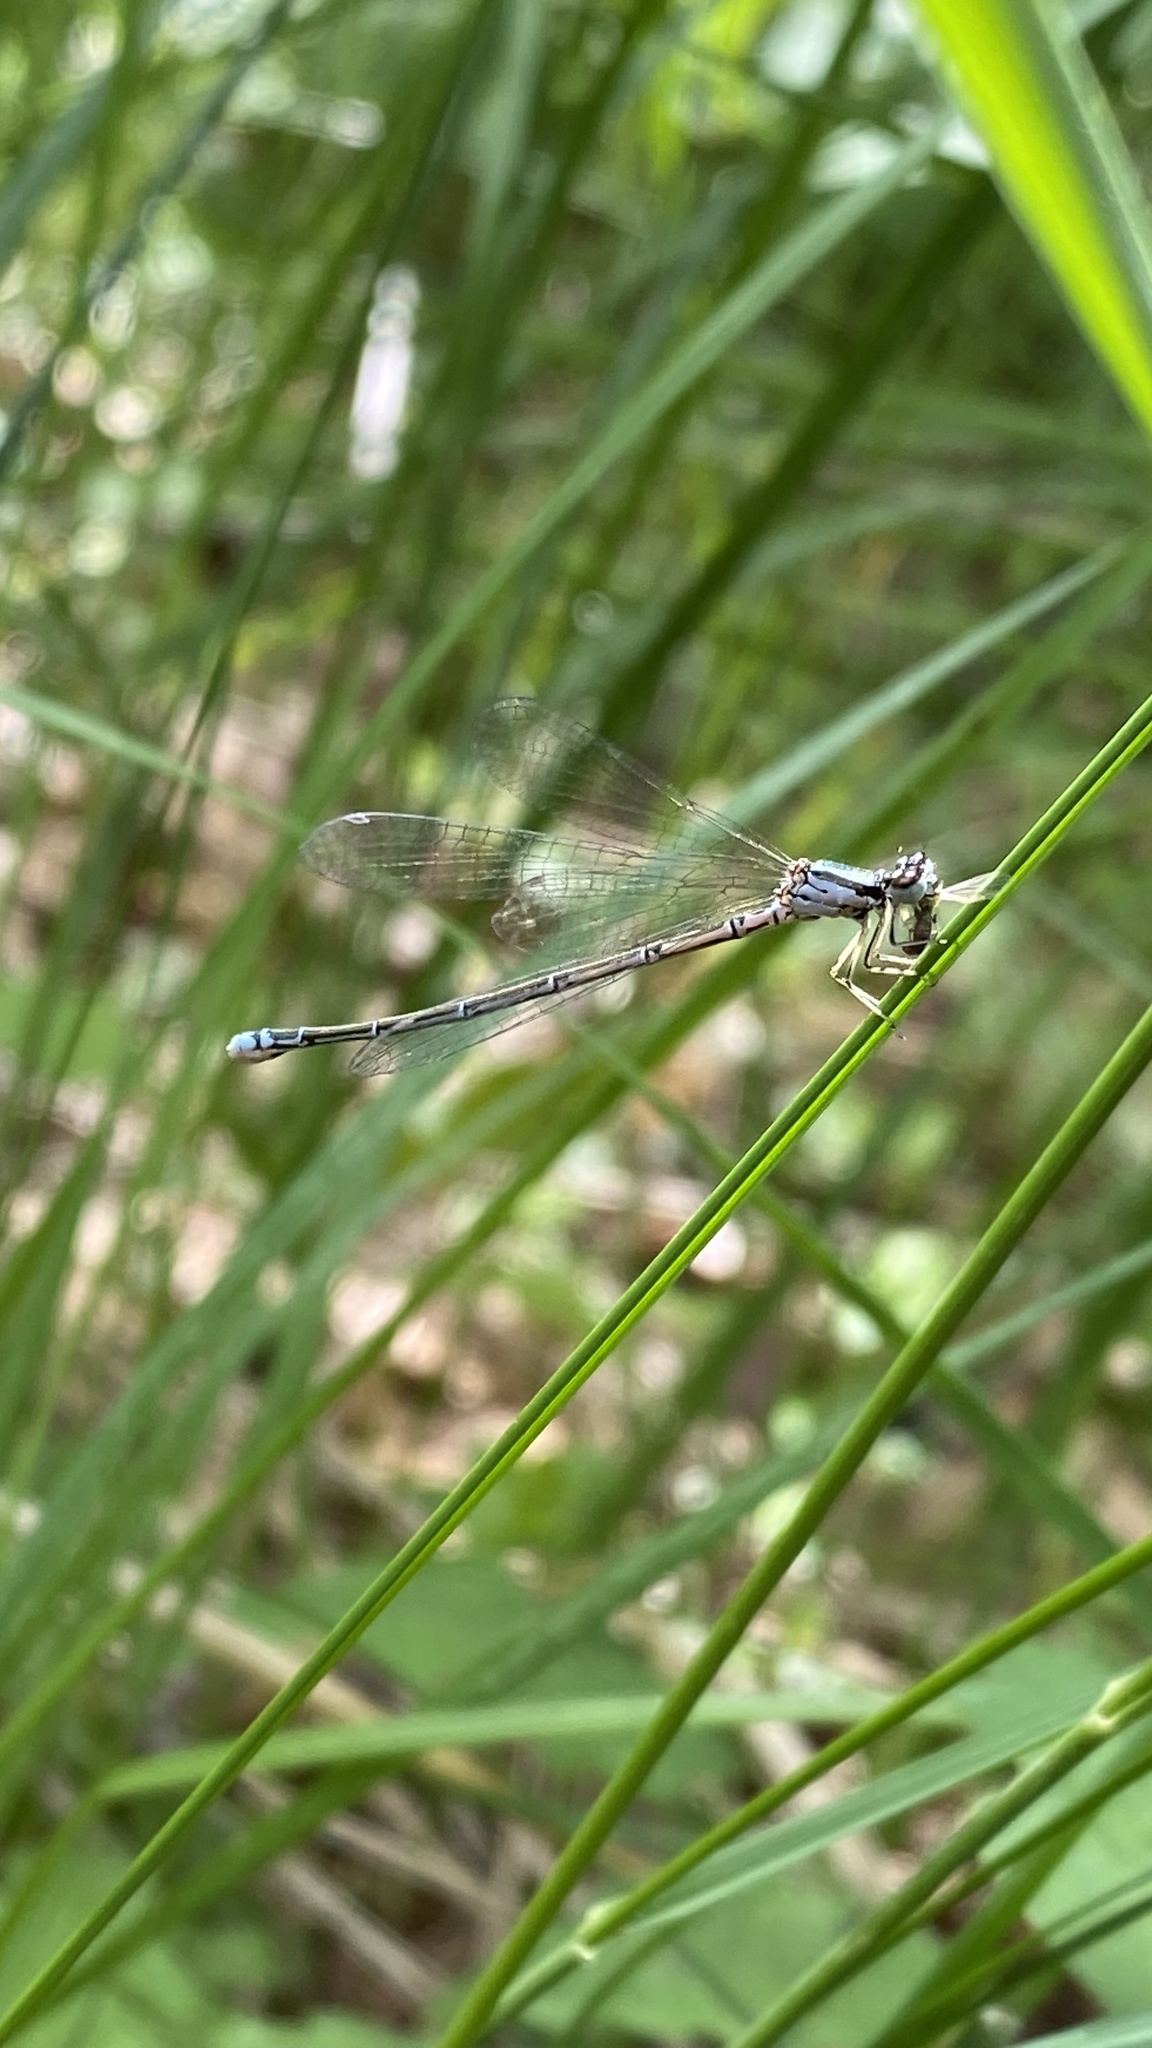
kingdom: Animalia
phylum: Arthropoda
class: Insecta
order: Odonata
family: Coenagrionidae
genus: Coenagrion
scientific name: Coenagrion johanssoni
